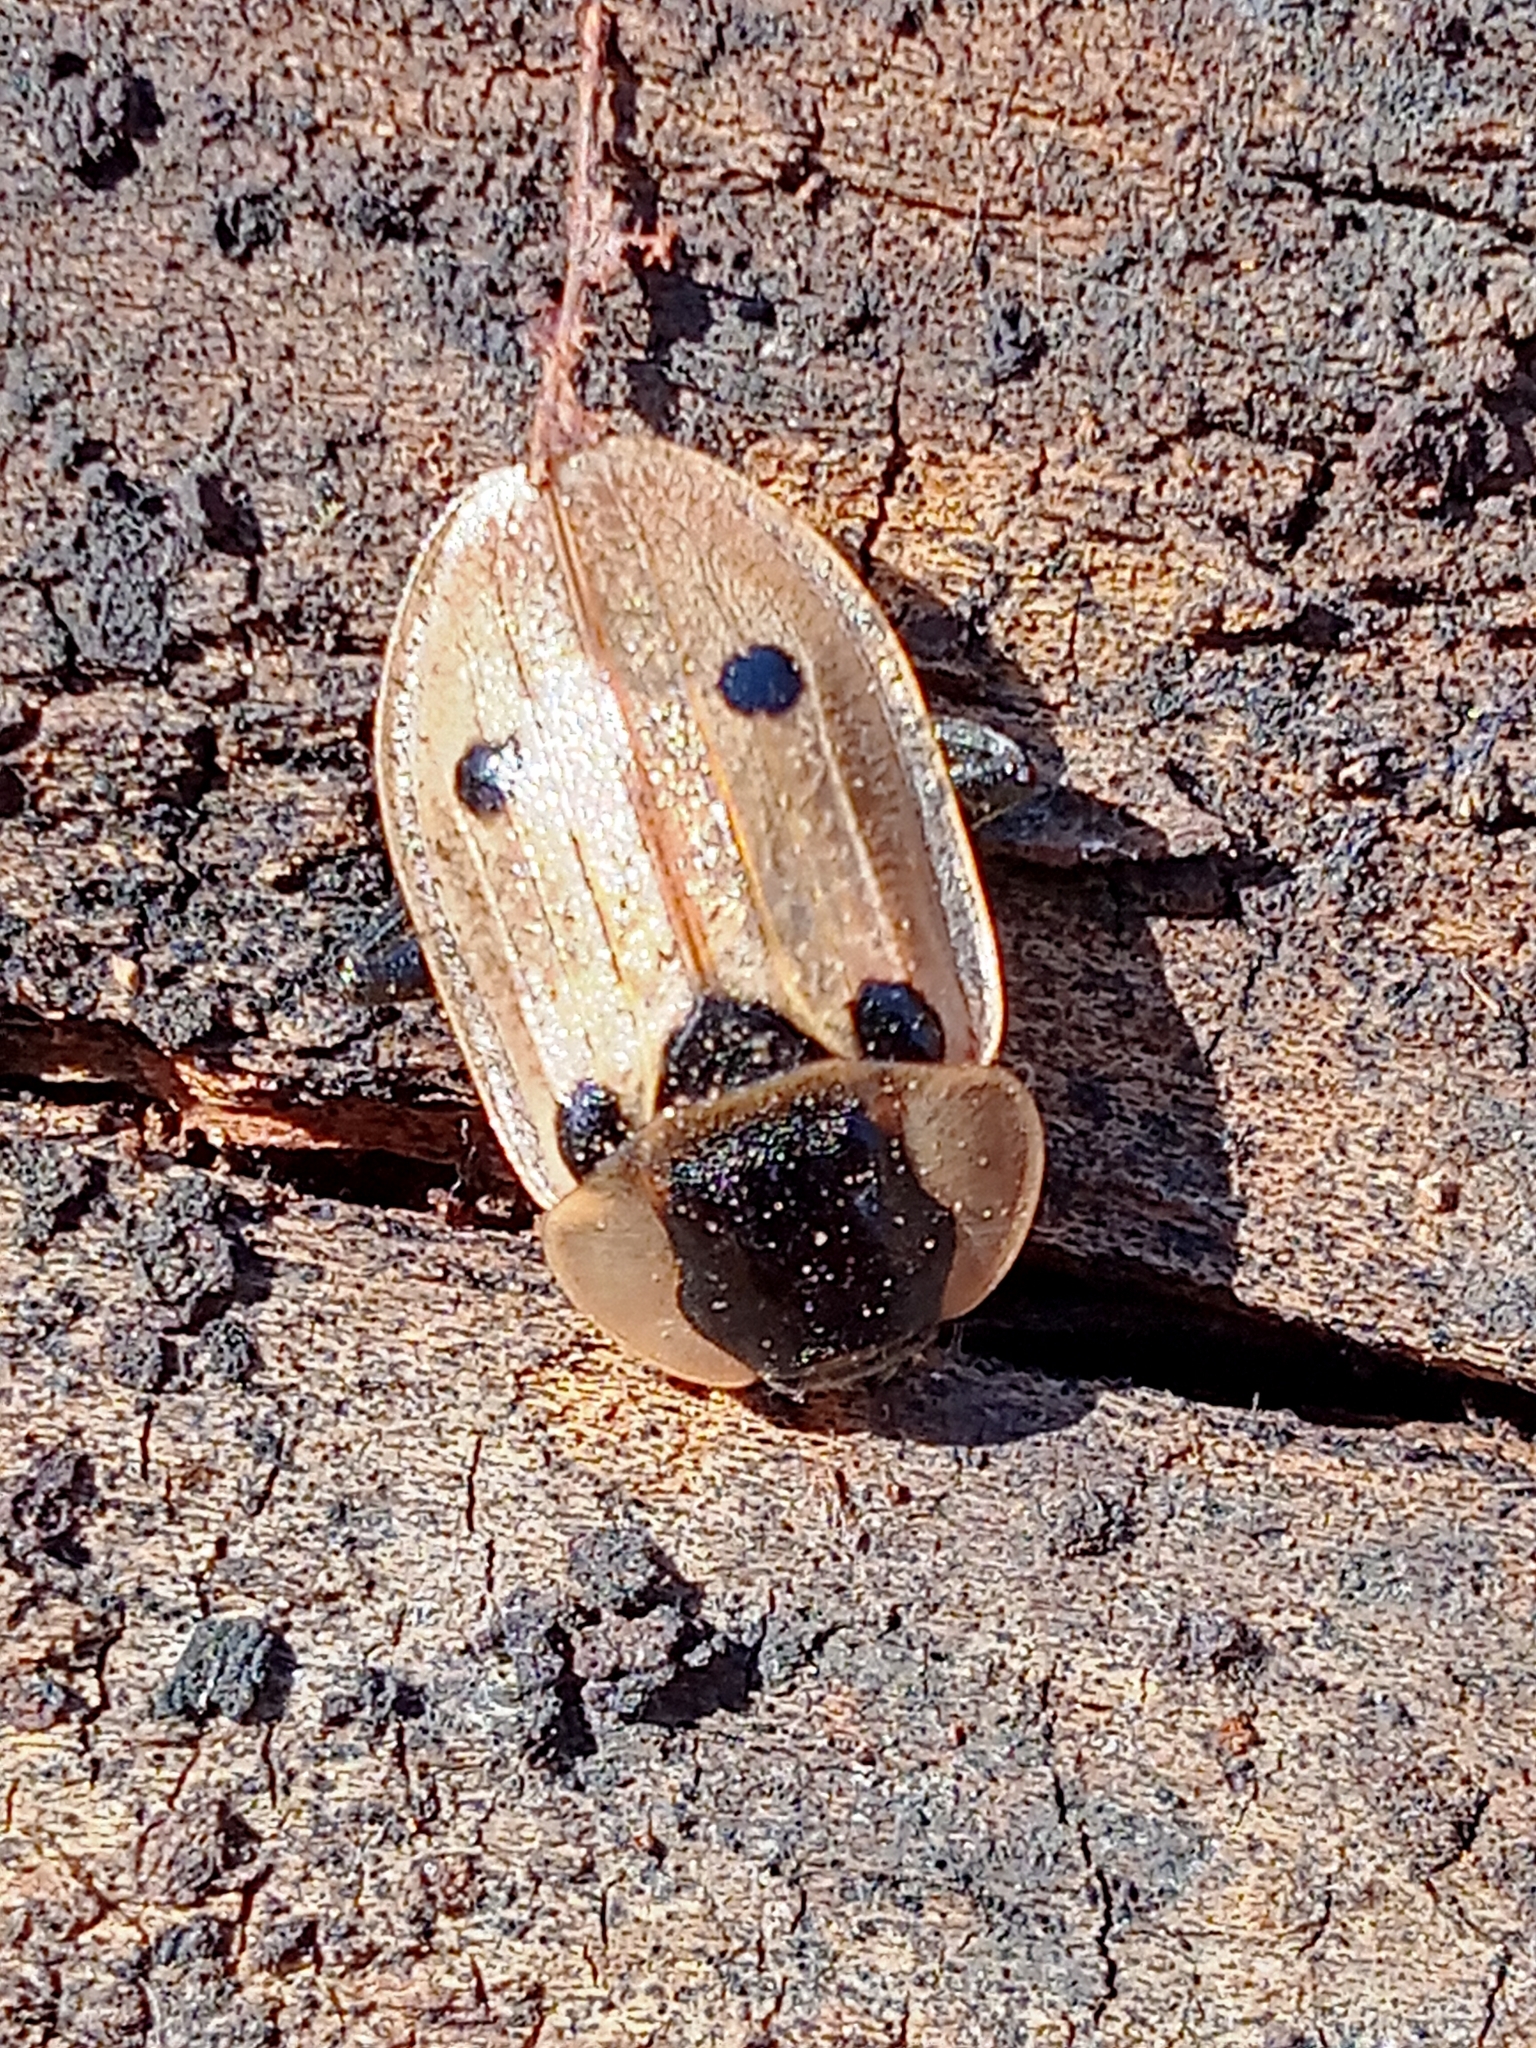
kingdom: Animalia
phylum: Arthropoda
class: Insecta
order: Coleoptera
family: Staphylinidae
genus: Dendroxena
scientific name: Dendroxena quadrimaculata
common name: Carrion beetle
